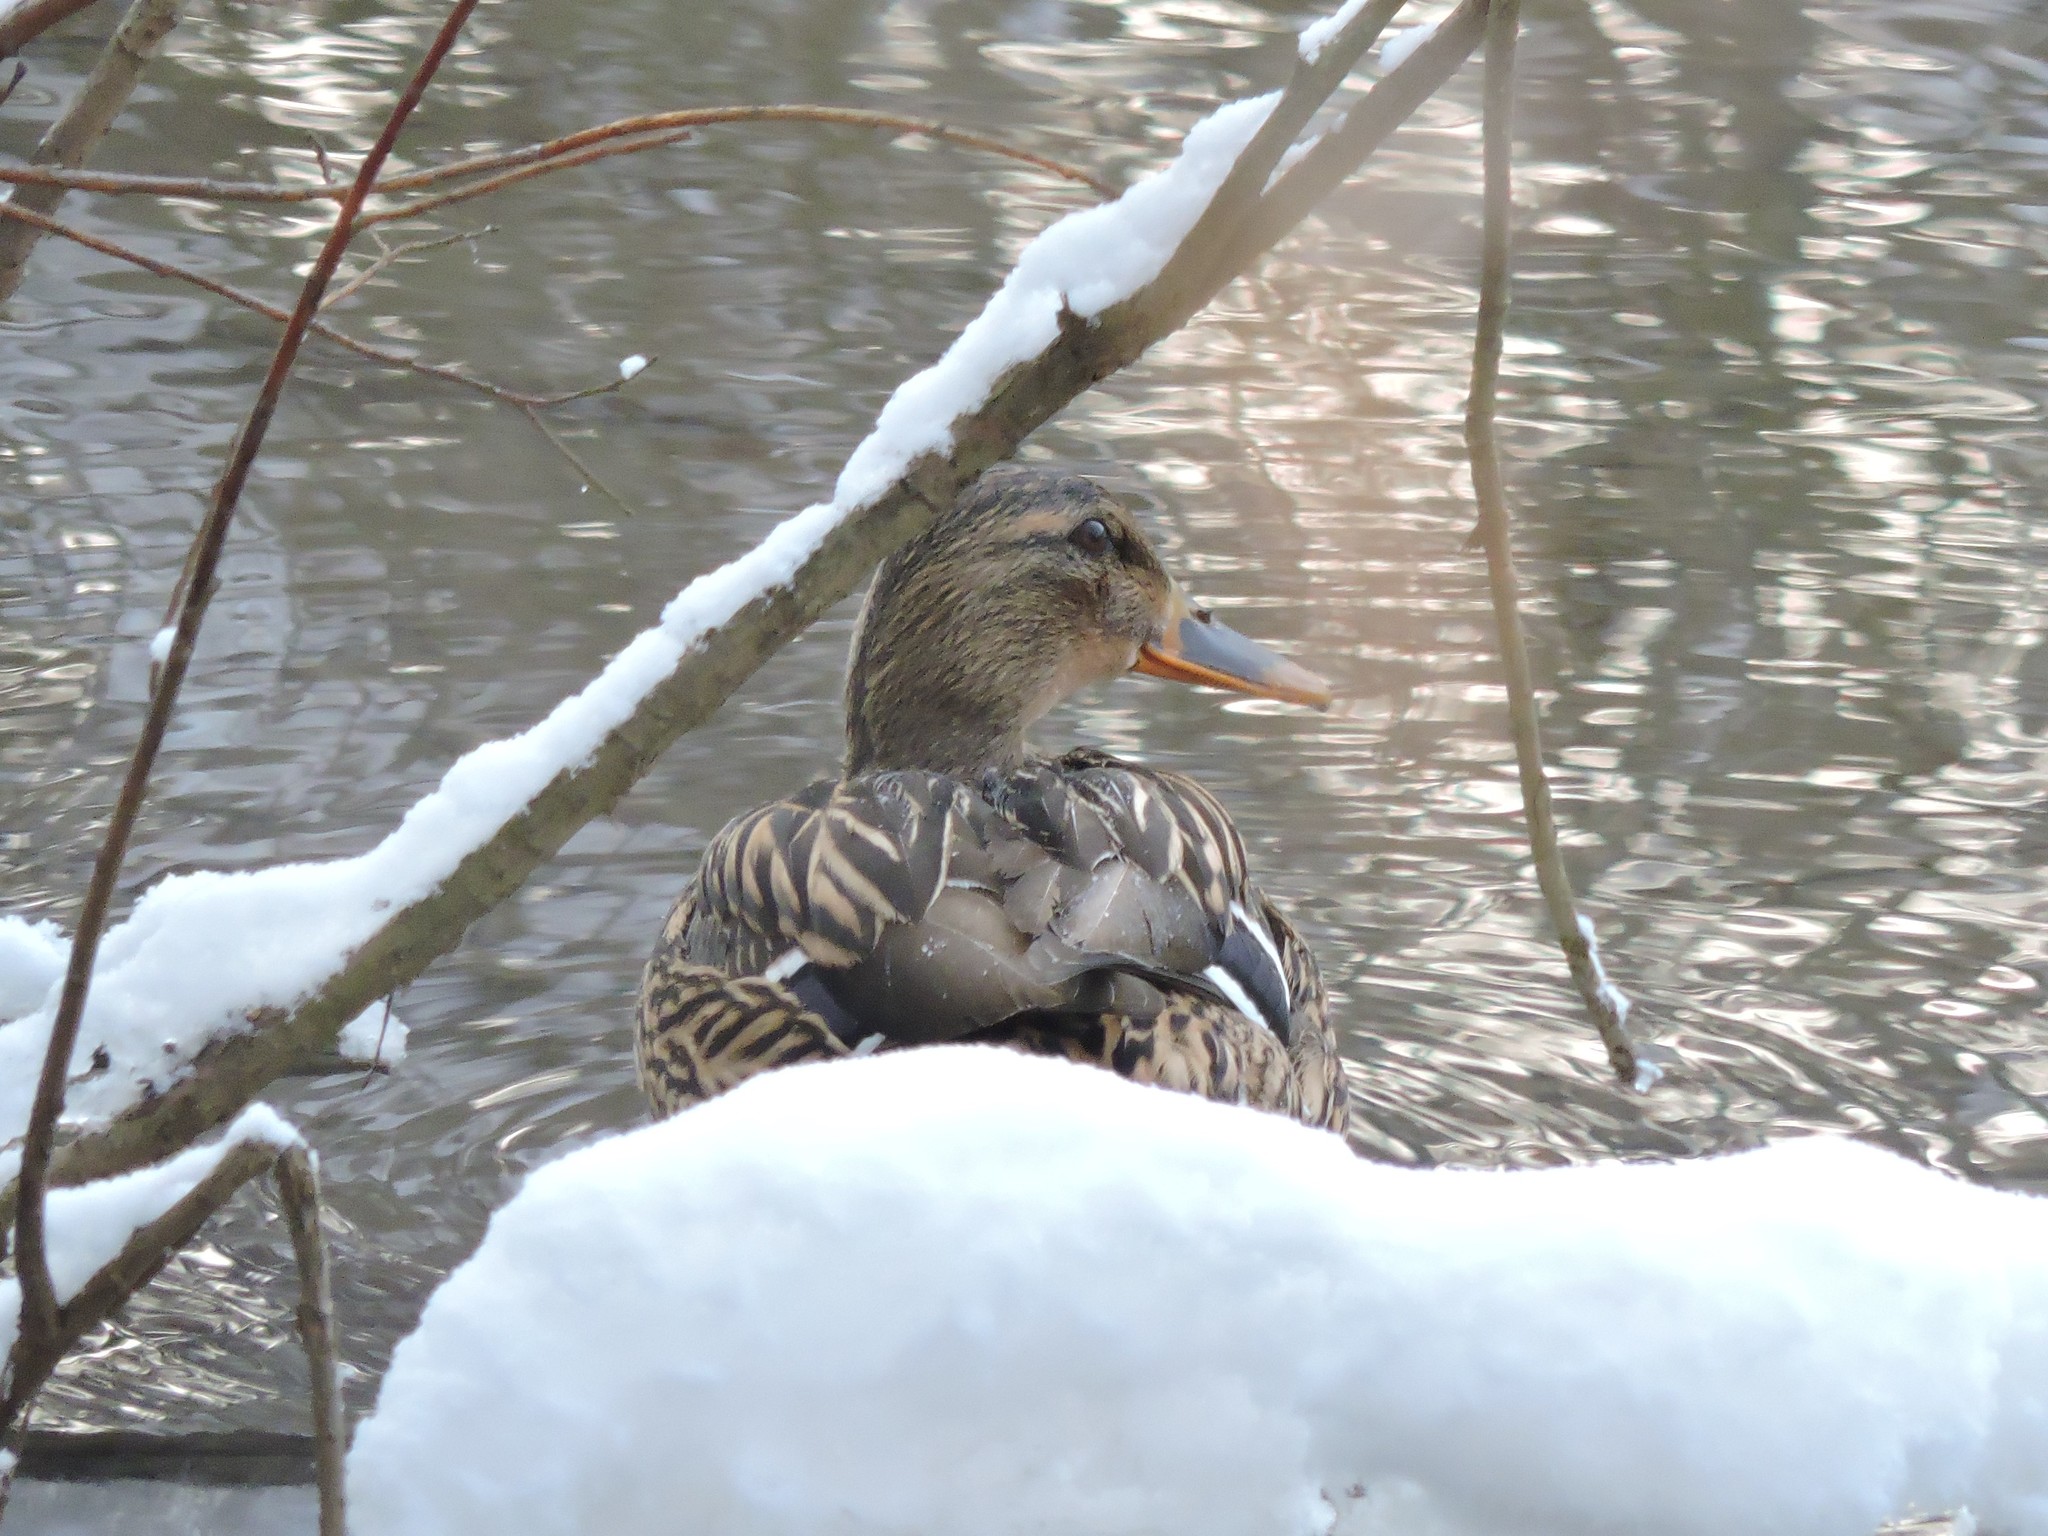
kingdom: Animalia
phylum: Chordata
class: Aves
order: Anseriformes
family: Anatidae
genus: Anas
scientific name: Anas platyrhynchos
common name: Mallard
